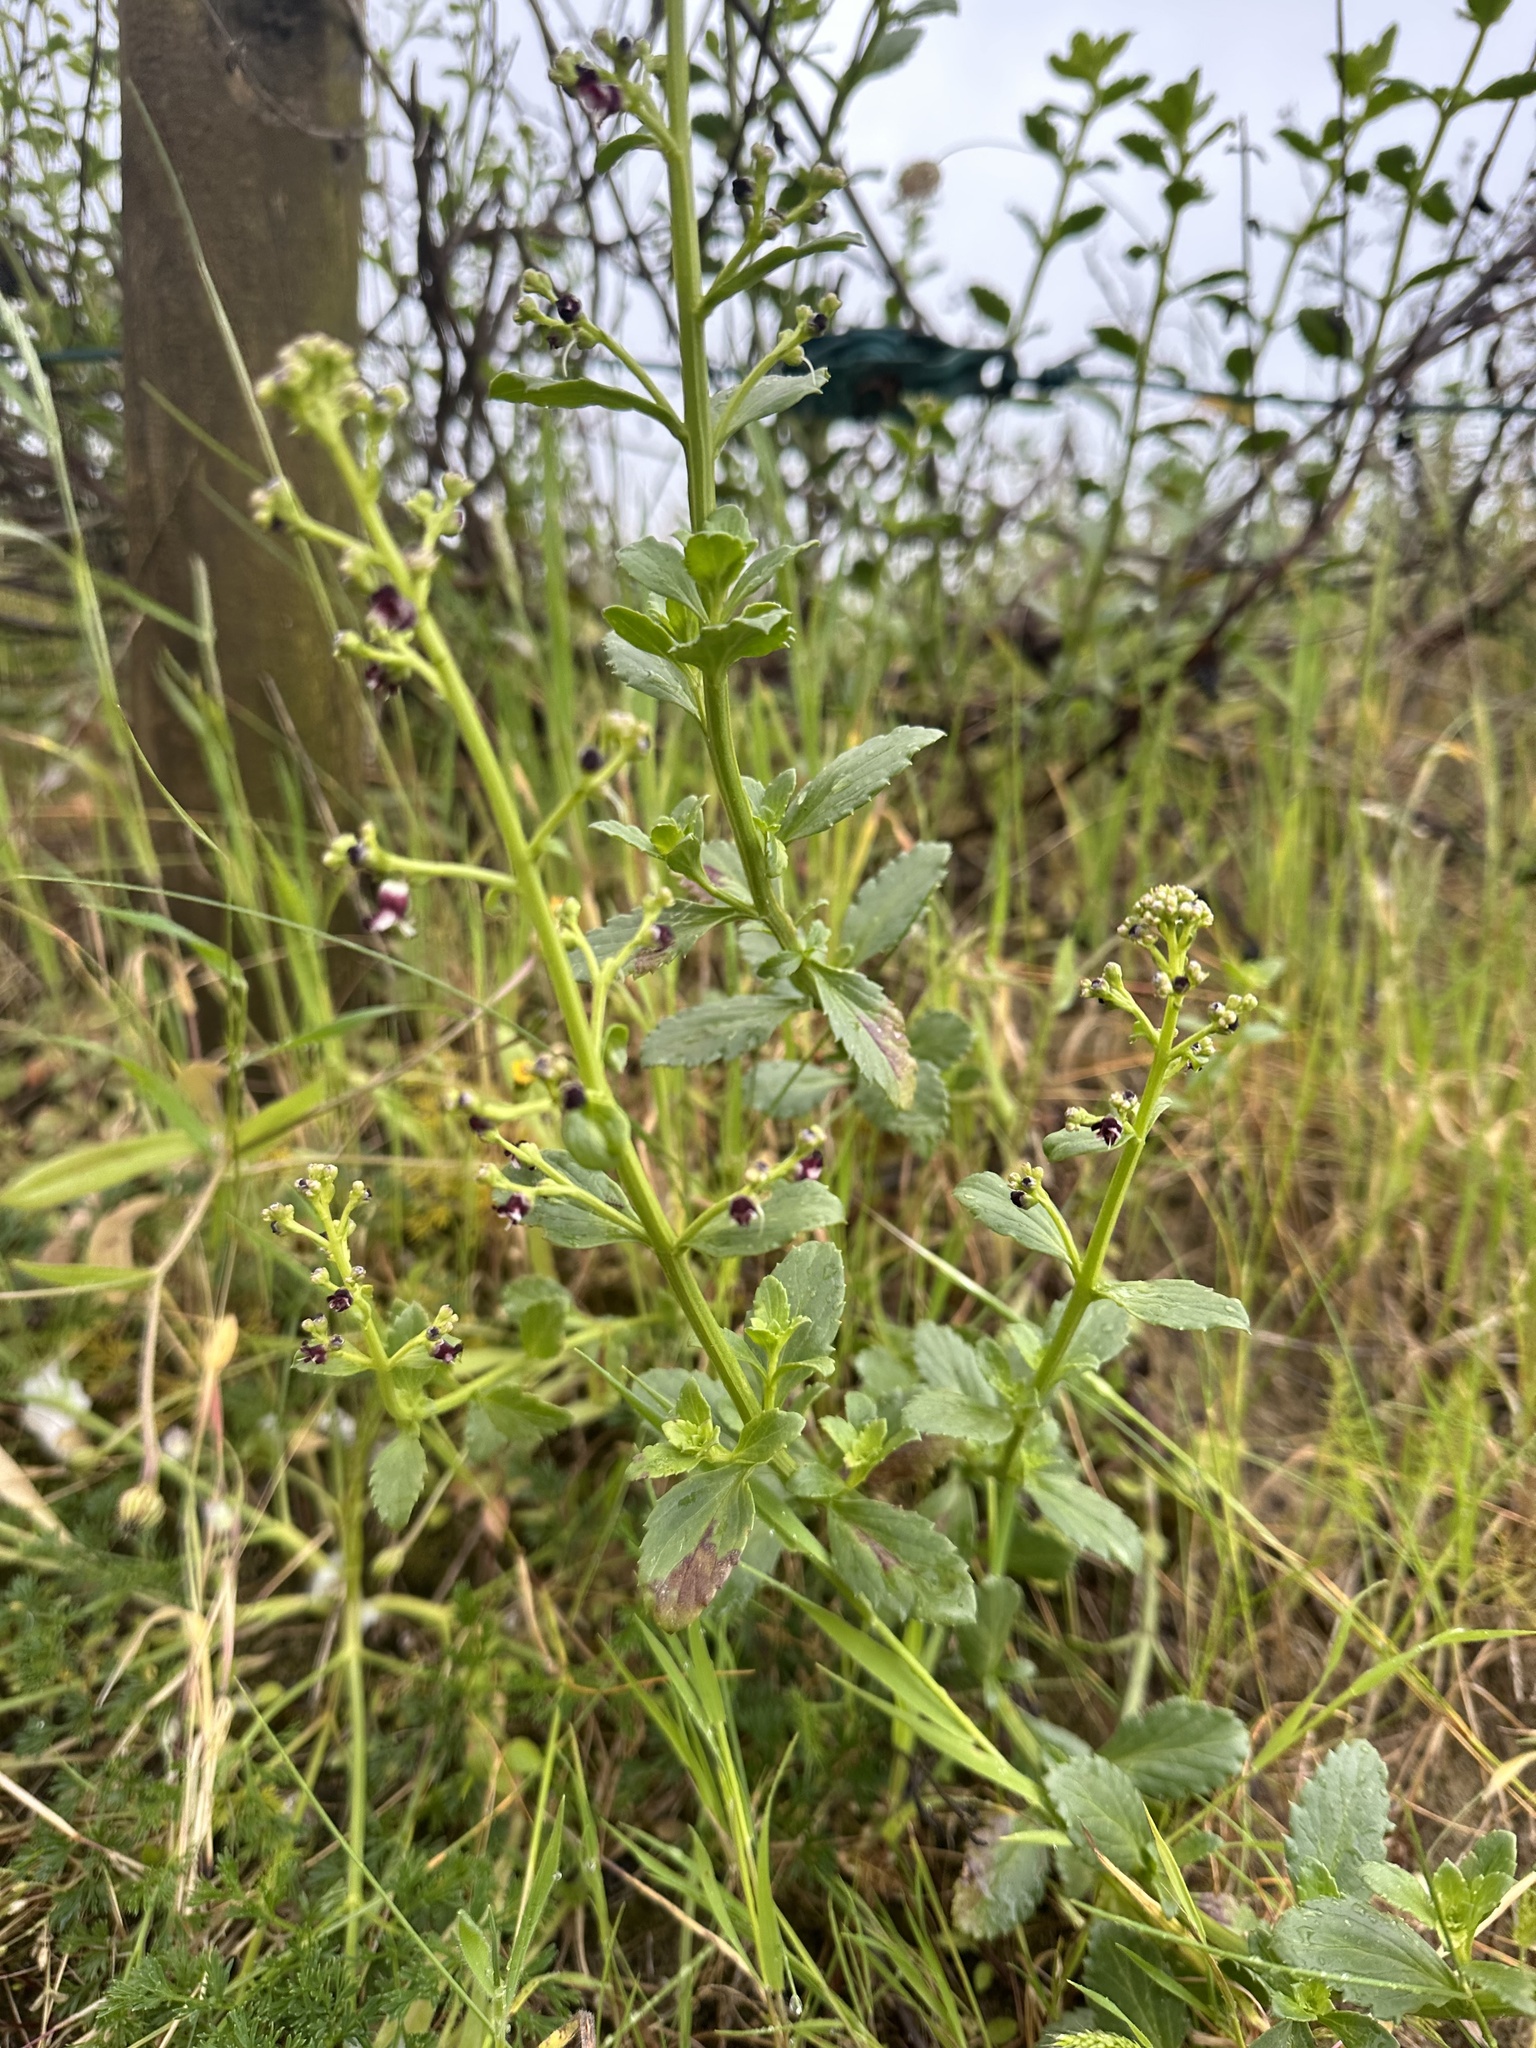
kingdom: Plantae
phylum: Tracheophyta
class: Magnoliopsida
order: Lamiales
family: Scrophulariaceae
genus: Scrophularia
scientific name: Scrophularia frutescens
